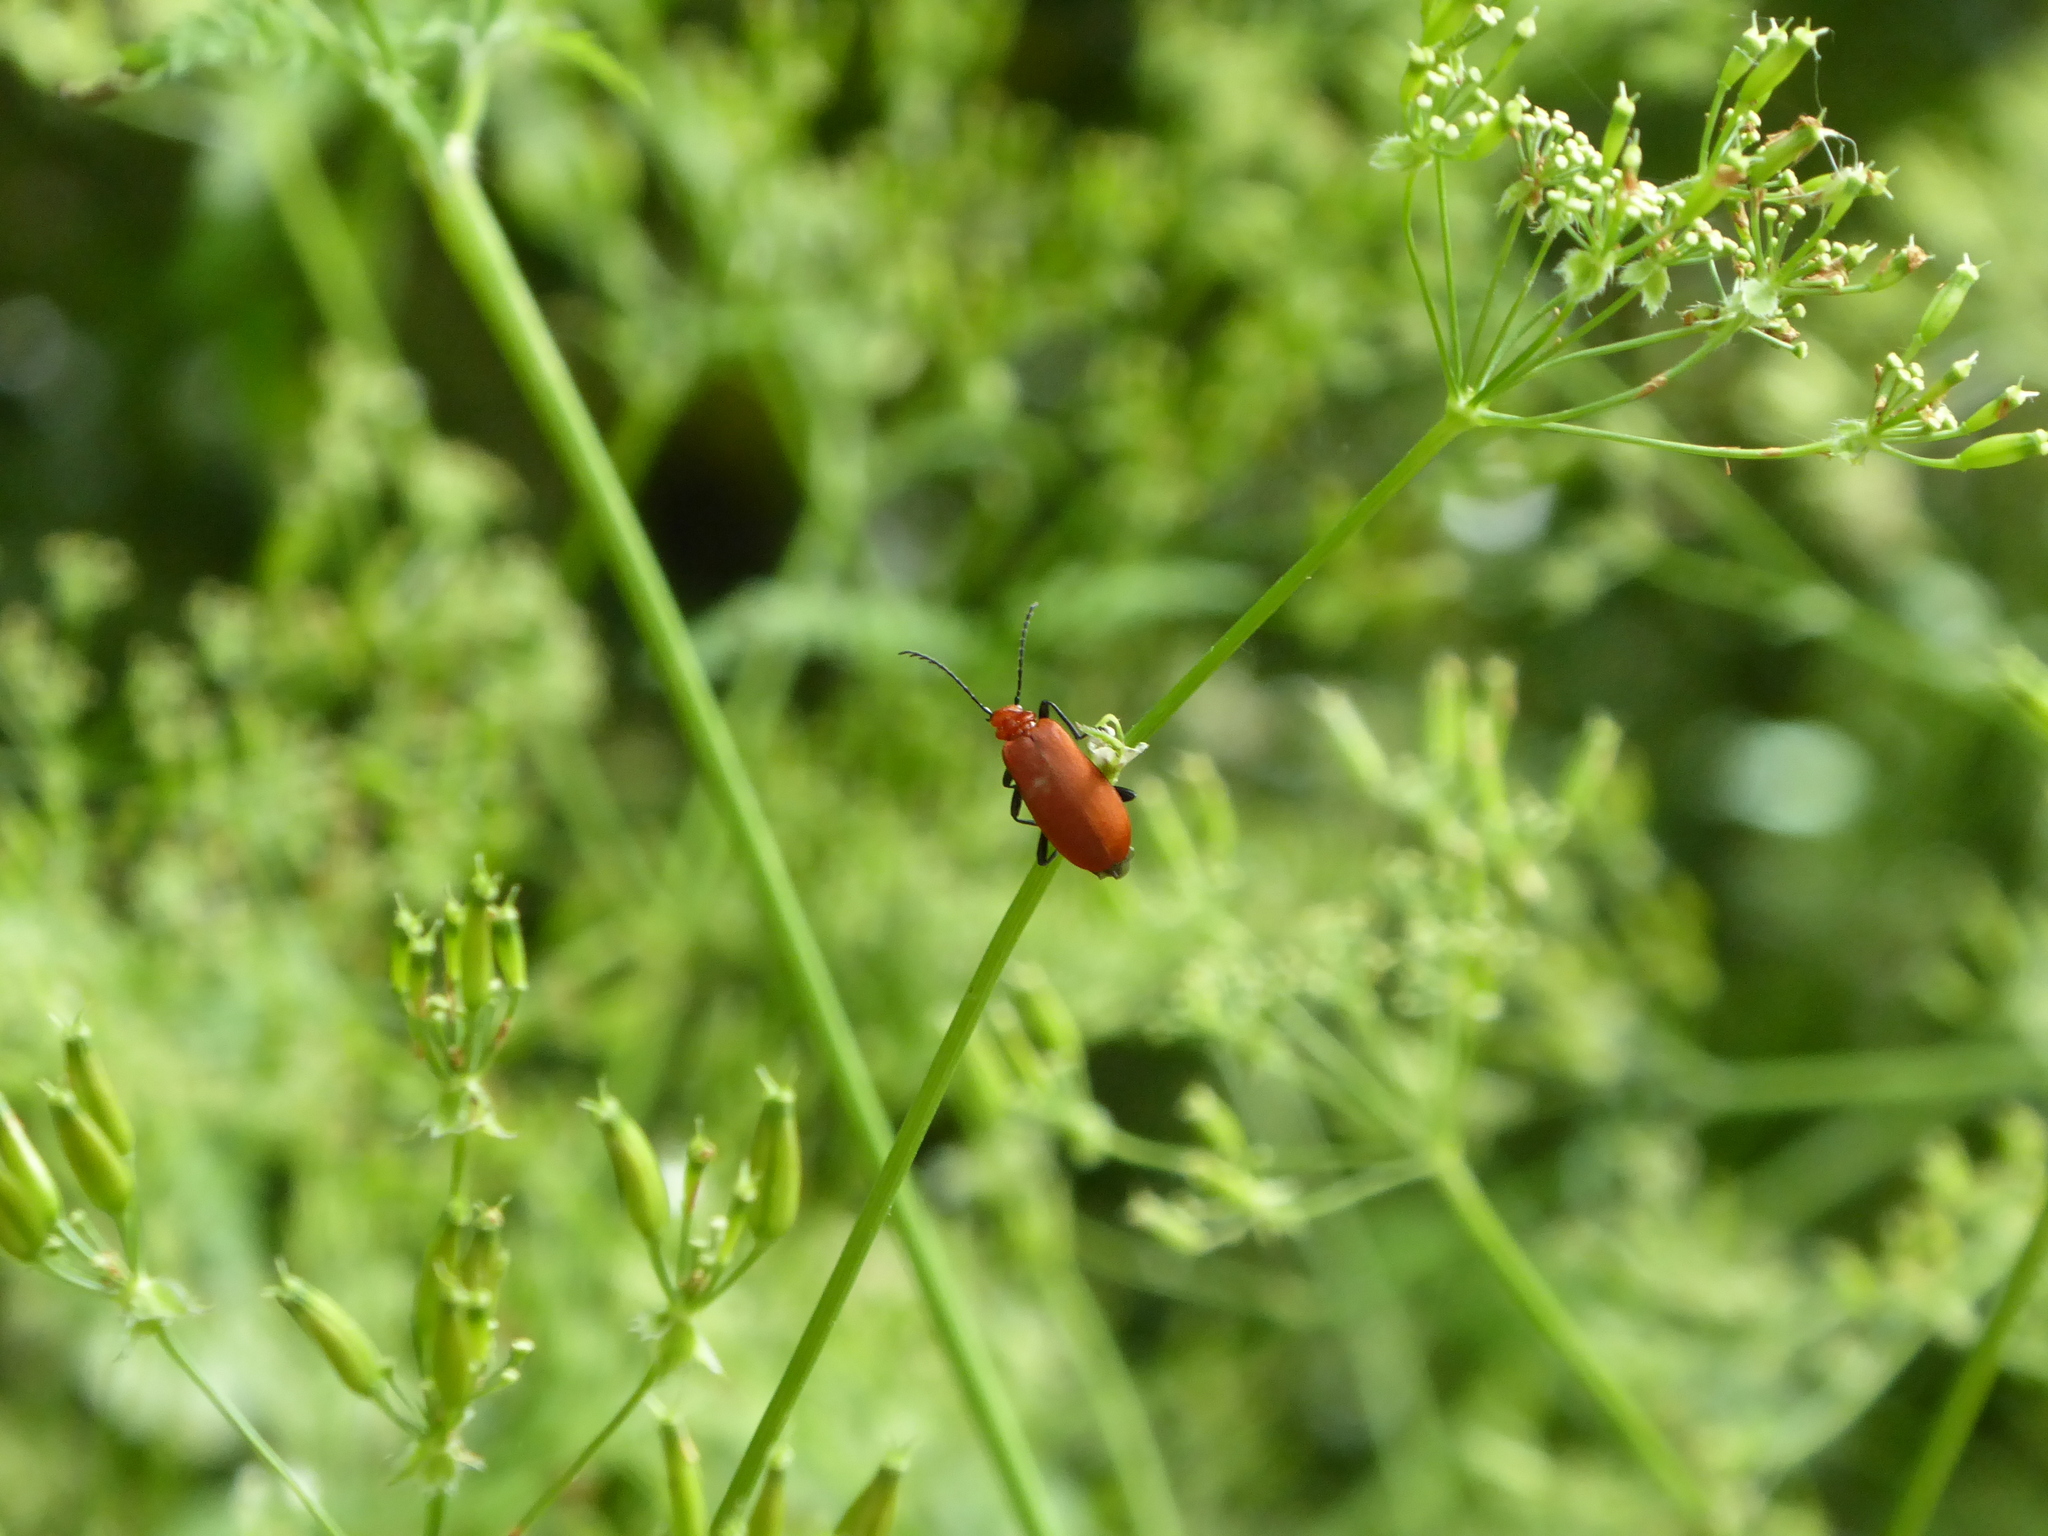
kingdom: Animalia
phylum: Arthropoda
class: Insecta
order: Coleoptera
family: Pyrochroidae
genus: Pyrochroa
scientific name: Pyrochroa serraticornis
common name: Red-headed cardinal beetle
